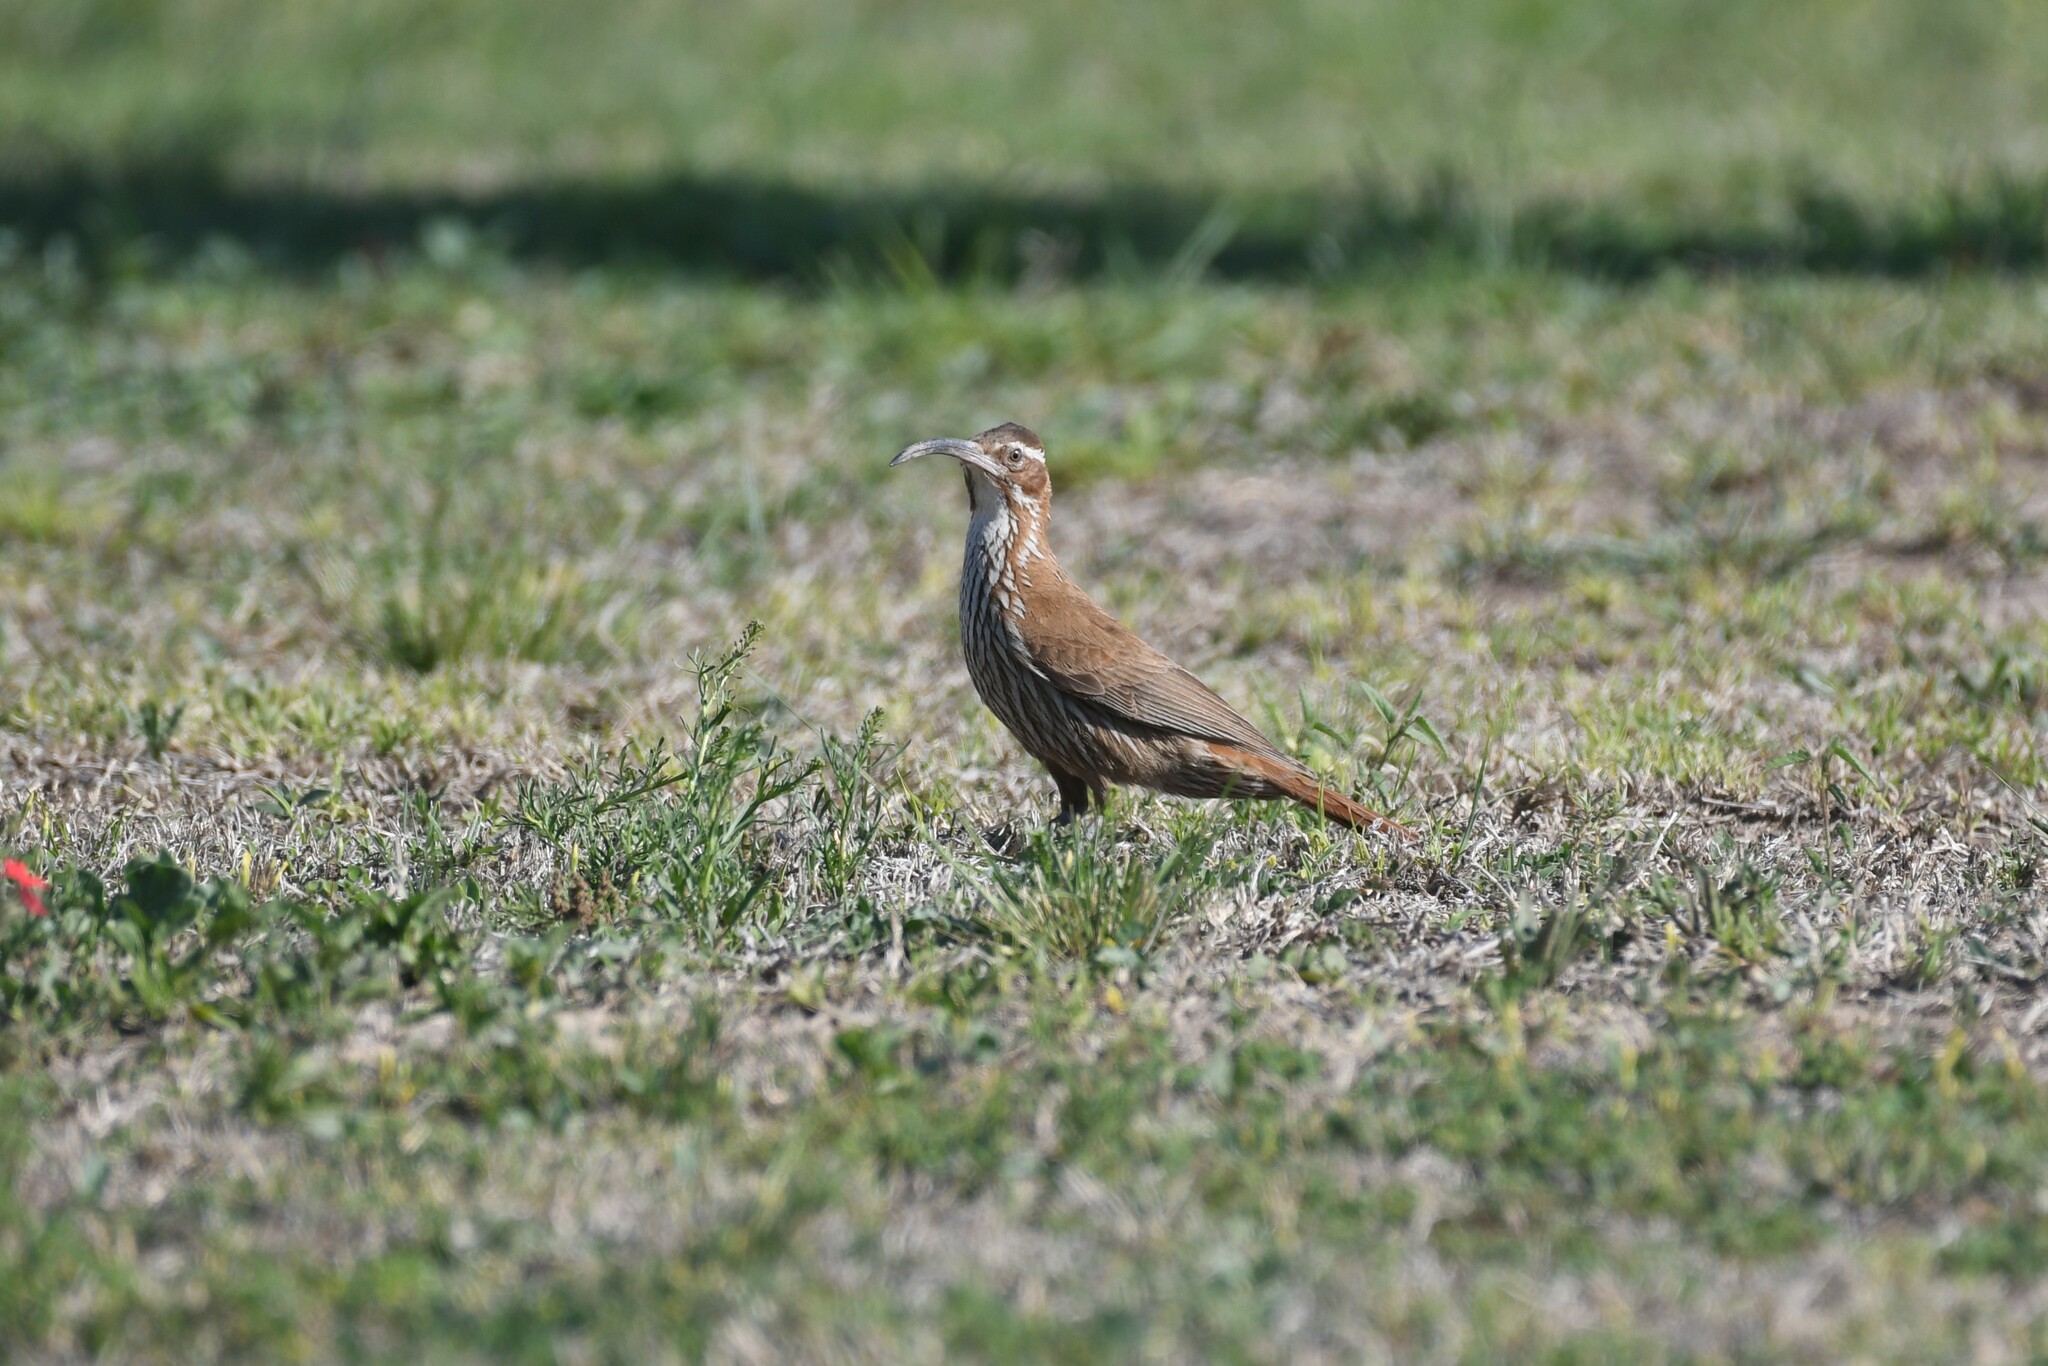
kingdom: Animalia
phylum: Chordata
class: Aves
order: Passeriformes
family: Furnariidae
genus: Drymornis
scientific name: Drymornis bridgesii
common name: Scimitar-billed woodcreeper
